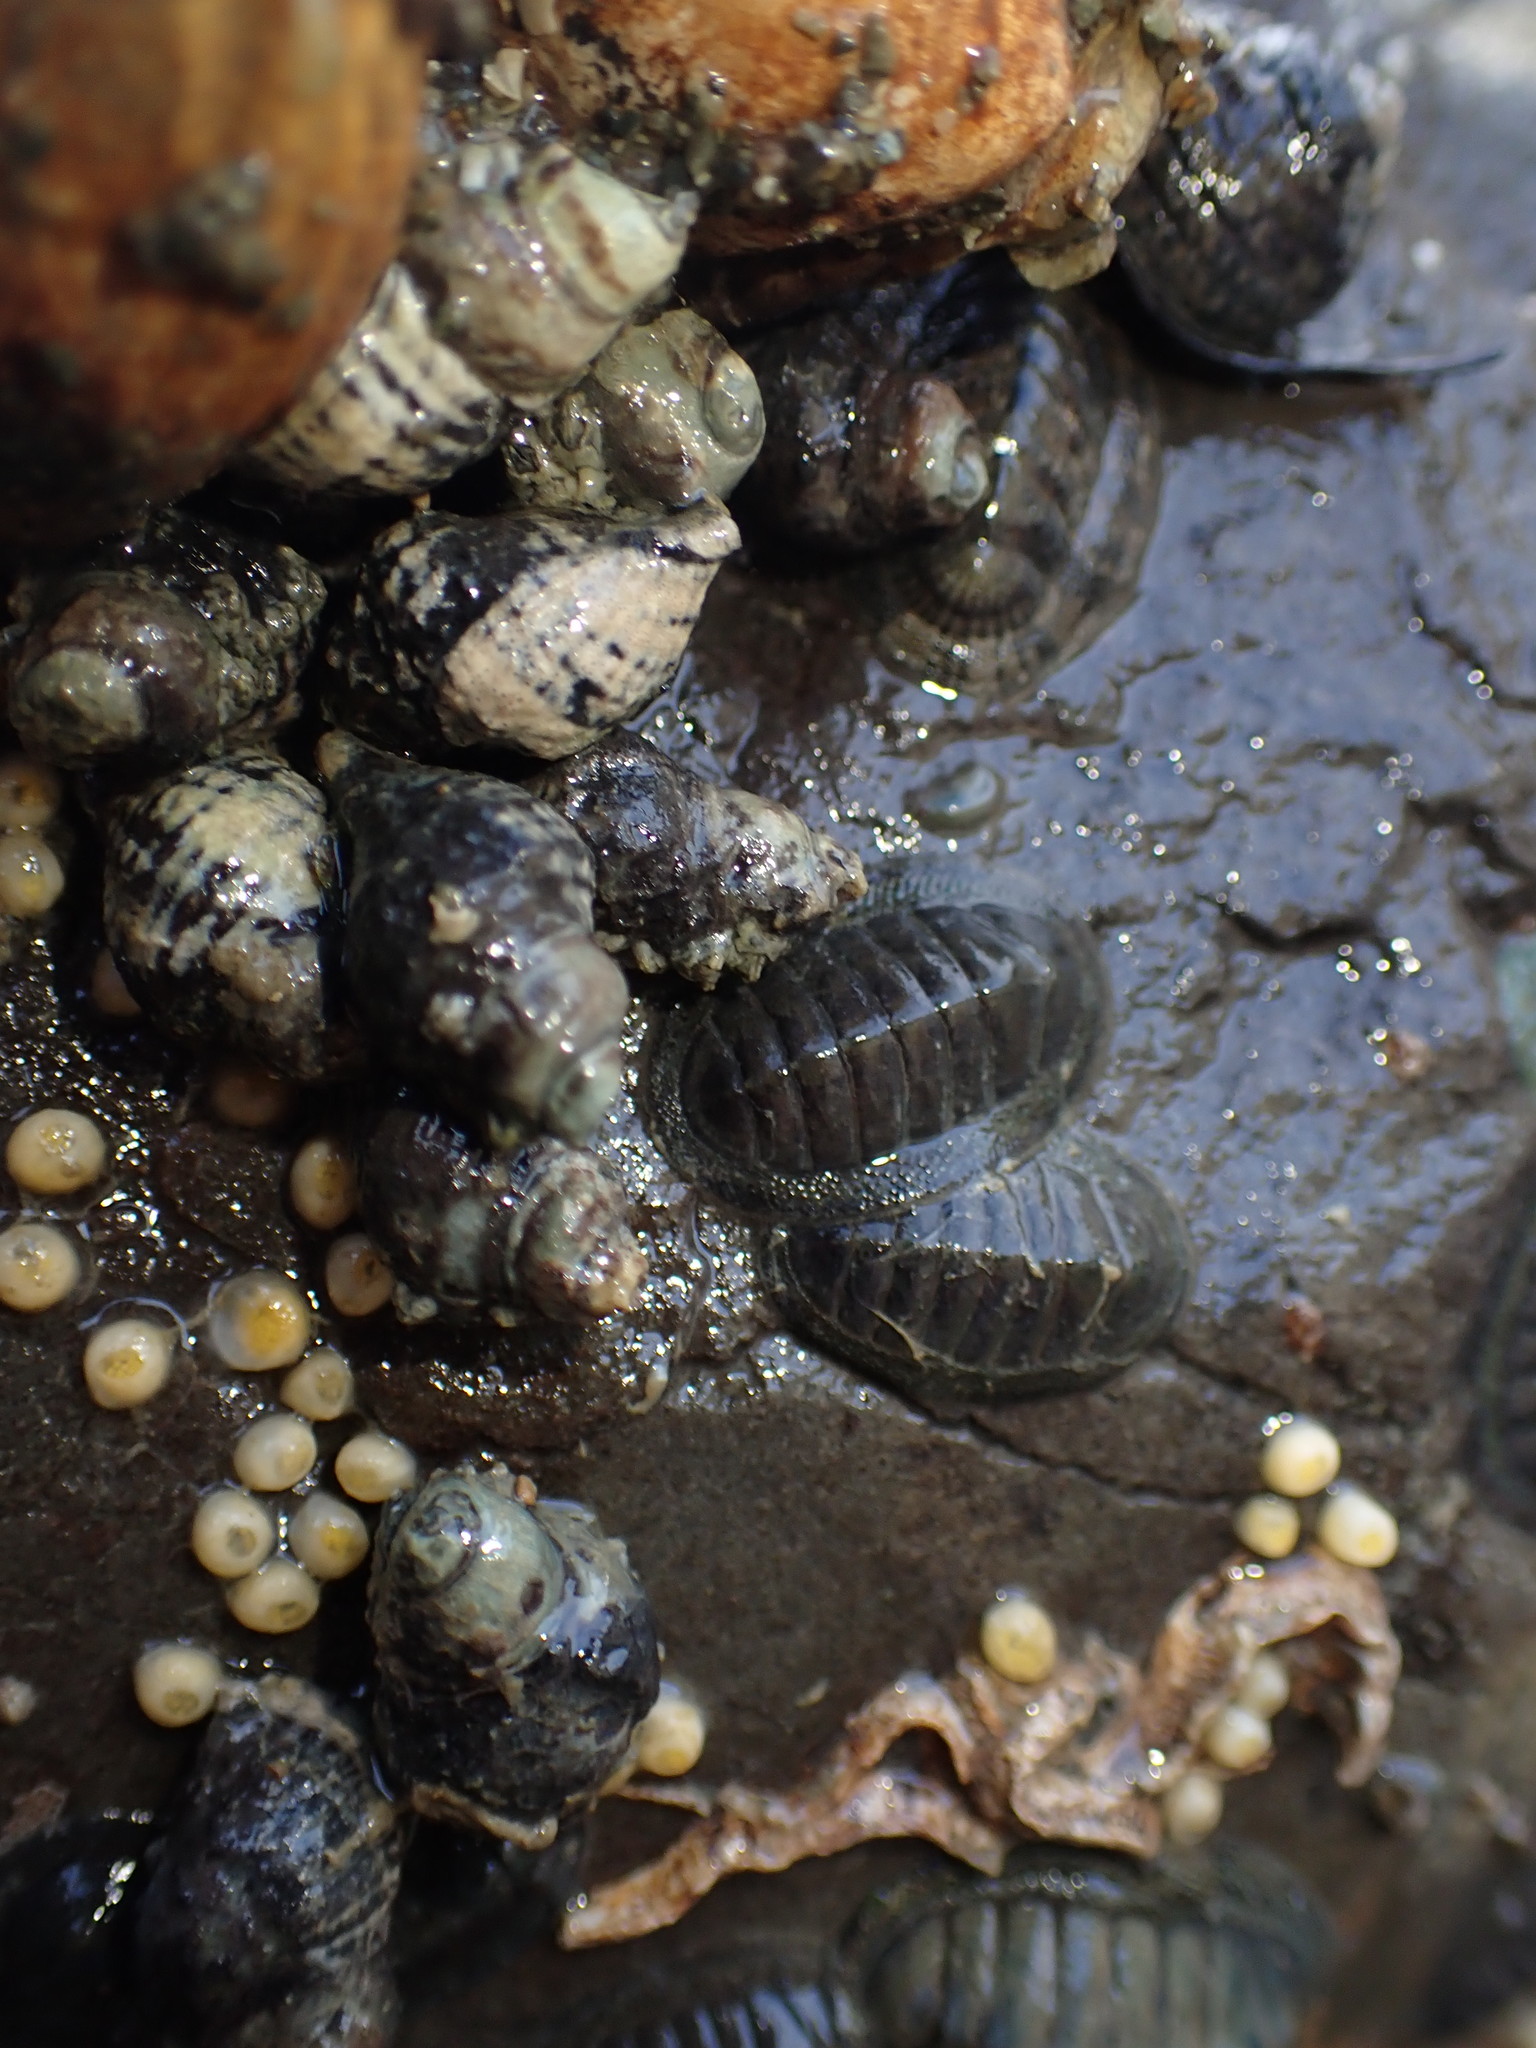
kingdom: Animalia
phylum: Mollusca
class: Polyplacophora
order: Chitonida
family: Chitonidae
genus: Chiton
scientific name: Chiton glaucus
